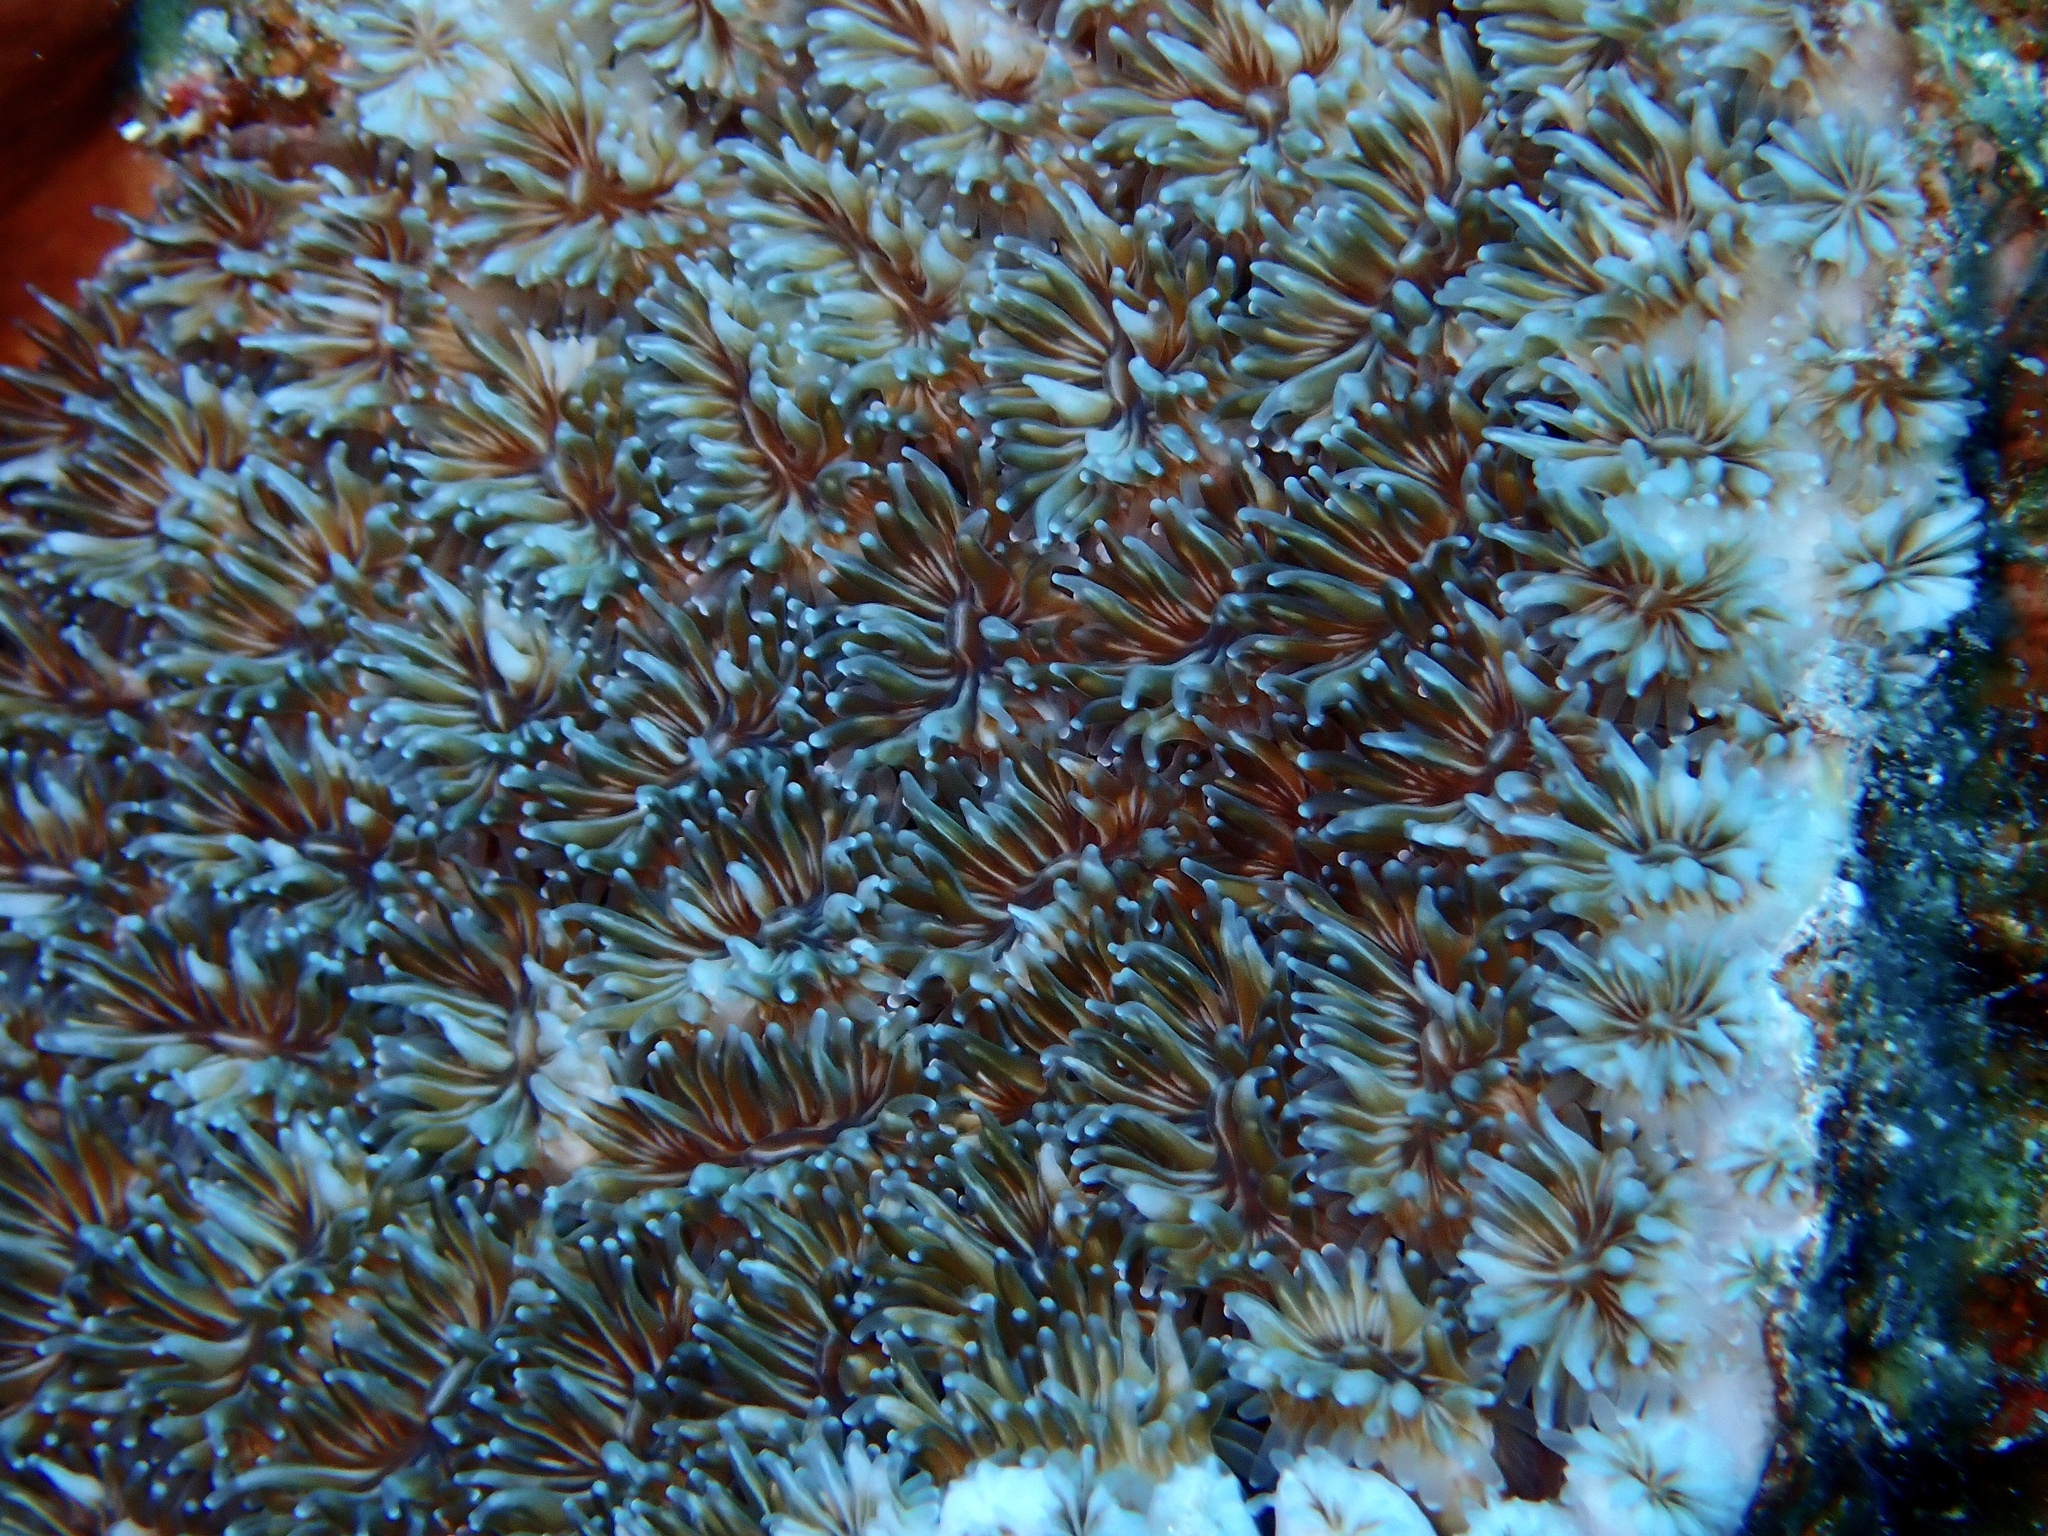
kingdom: Animalia
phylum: Cnidaria
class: Anthozoa
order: Scleractinia
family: Euphylliidae
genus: Galaxea
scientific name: Galaxea fascicularis
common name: Octopus coral
